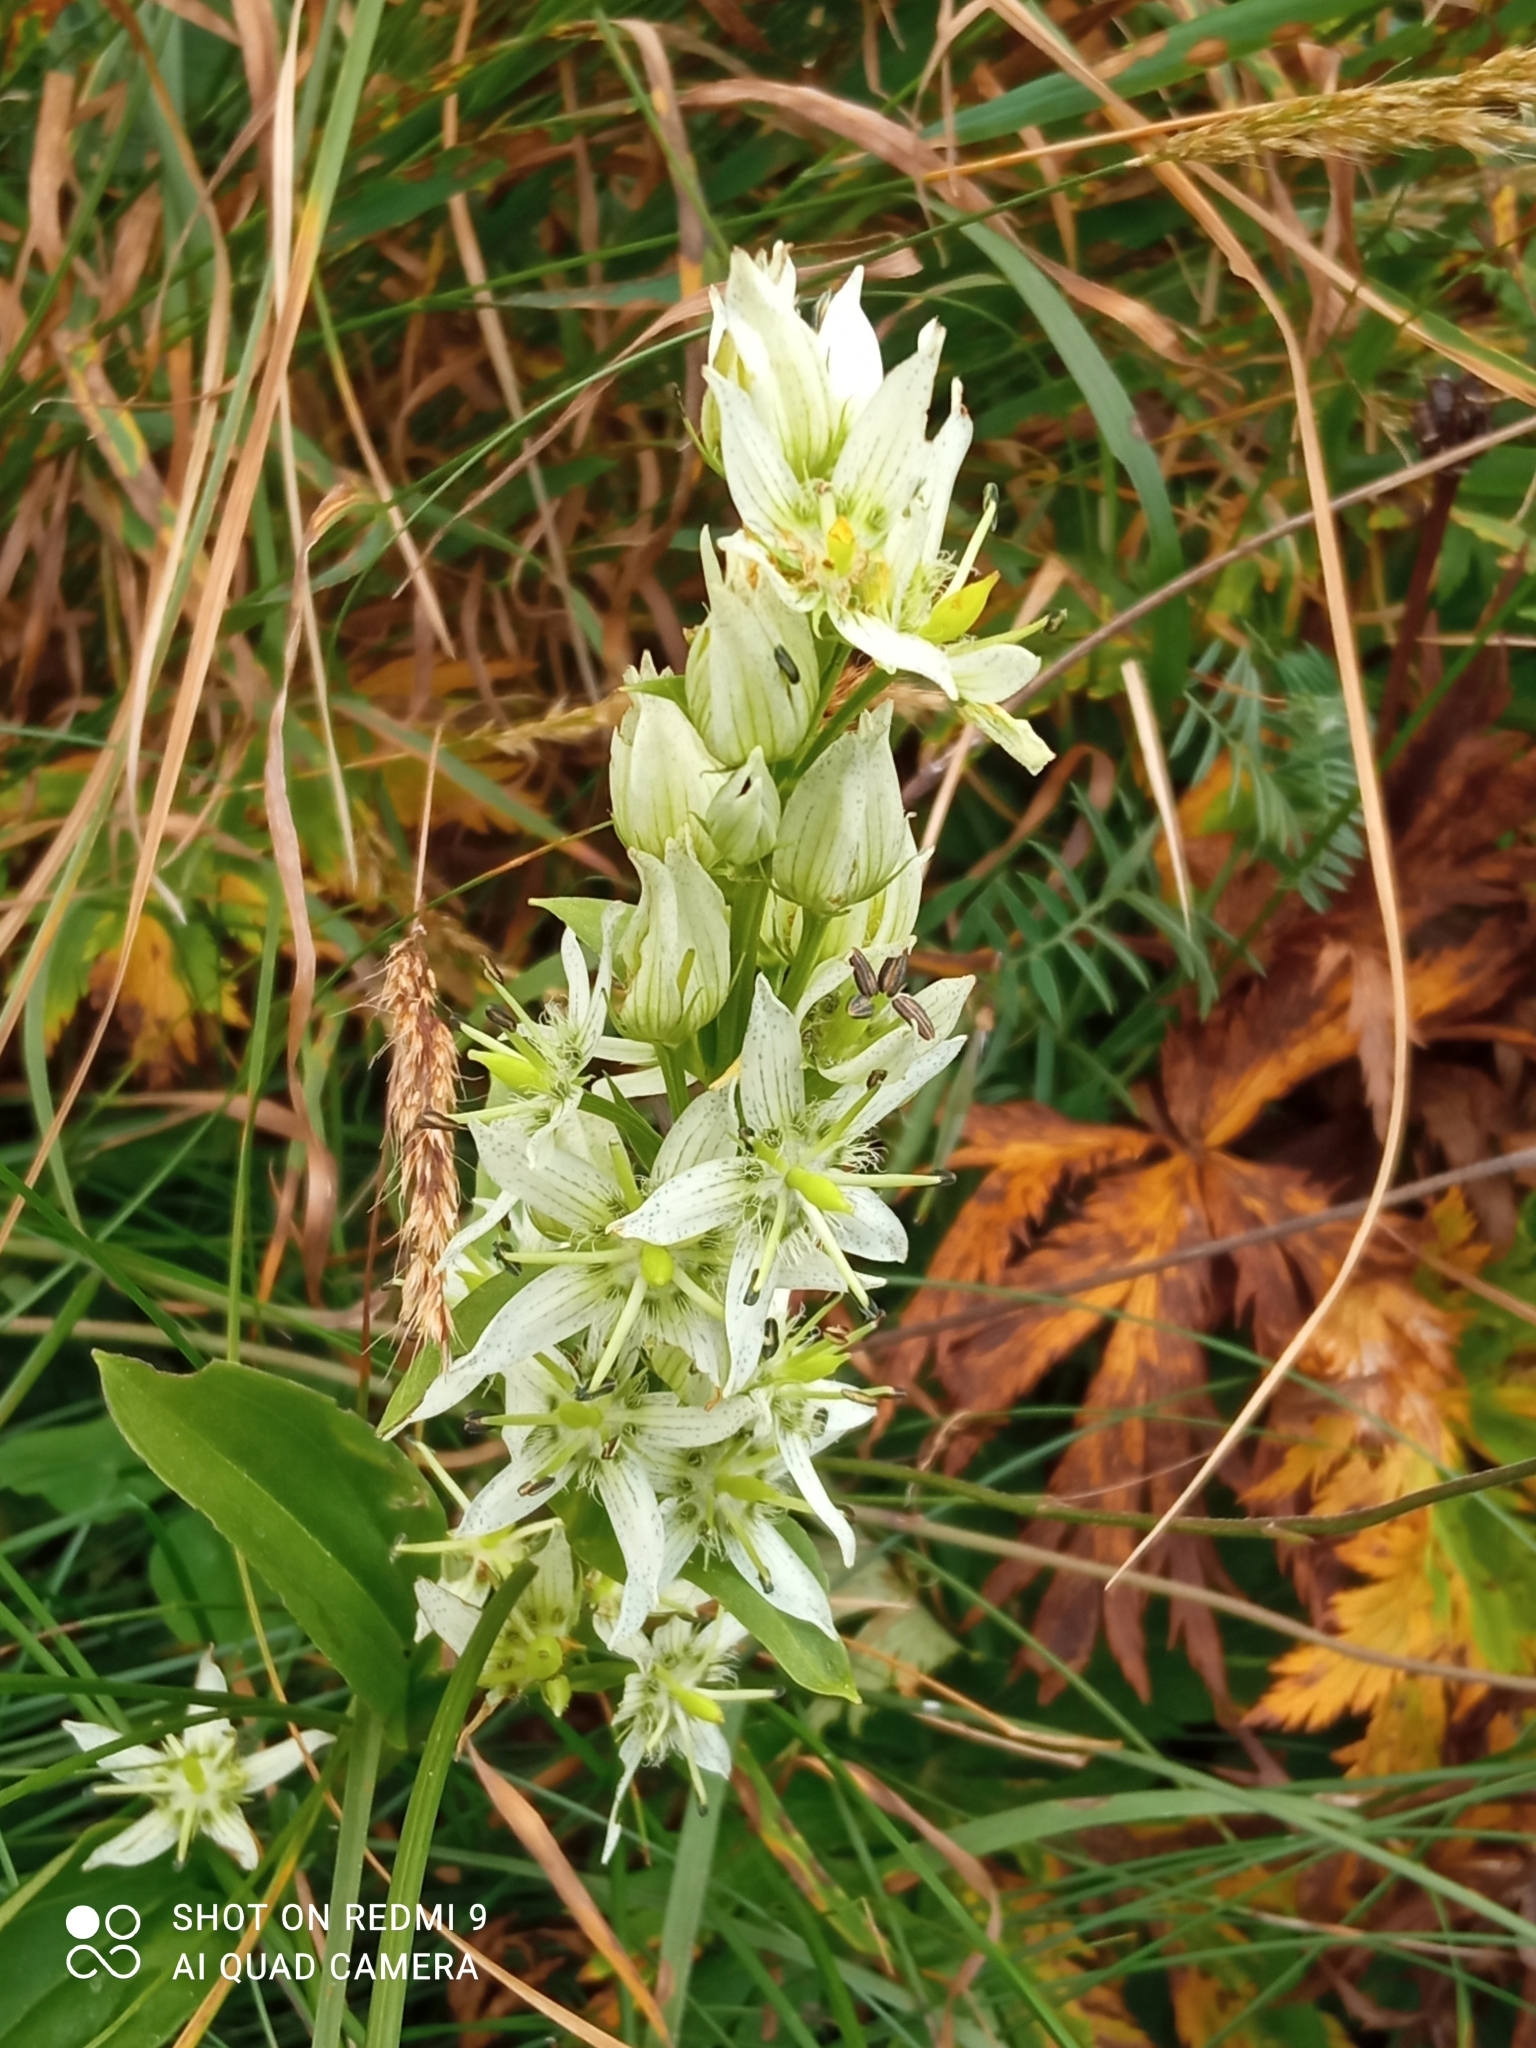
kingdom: Plantae
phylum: Tracheophyta
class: Magnoliopsida
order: Gentianales
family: Gentianaceae
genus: Swertia
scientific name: Swertia iberica
